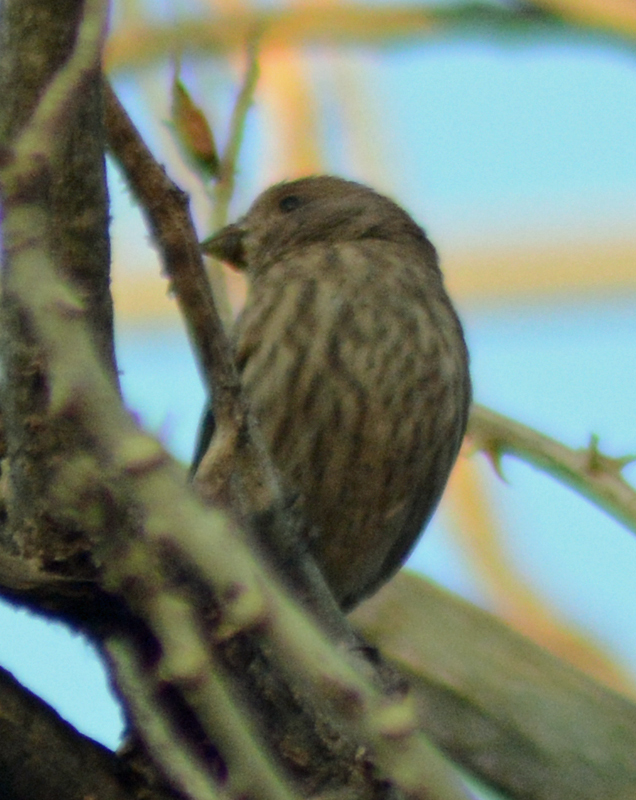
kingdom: Animalia
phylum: Chordata
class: Aves
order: Passeriformes
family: Fringillidae
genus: Haemorhous
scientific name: Haemorhous mexicanus
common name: House finch
